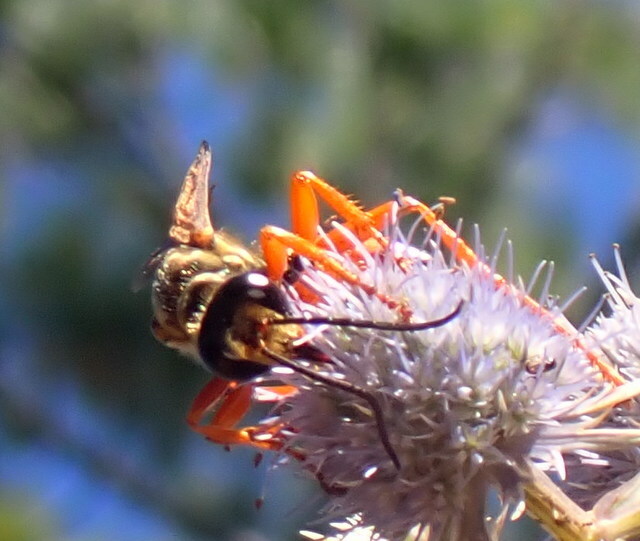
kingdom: Animalia
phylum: Arthropoda
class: Insecta
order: Hymenoptera
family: Sphecidae
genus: Sphex
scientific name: Sphex ichneumoneus
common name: Great golden digger wasp
